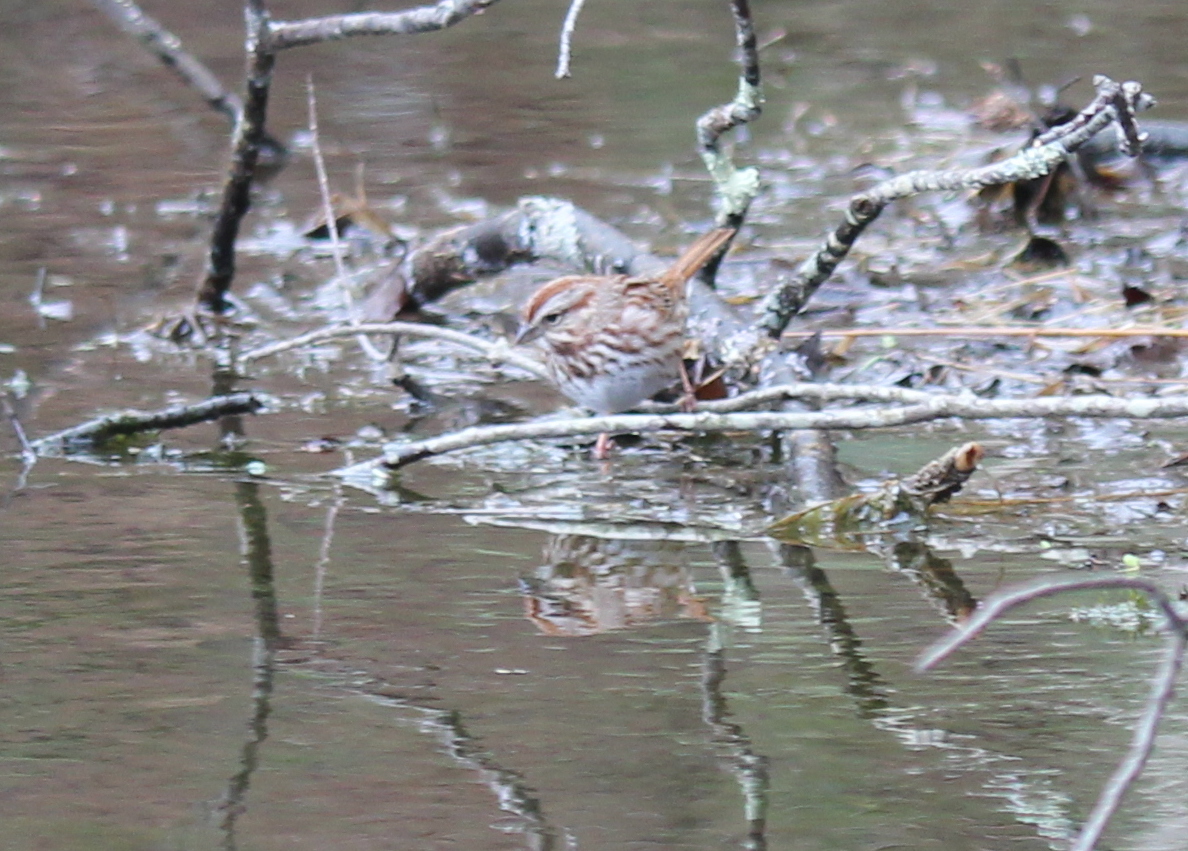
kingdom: Animalia
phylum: Chordata
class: Aves
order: Passeriformes
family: Passerellidae
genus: Melospiza
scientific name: Melospiza melodia
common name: Song sparrow
